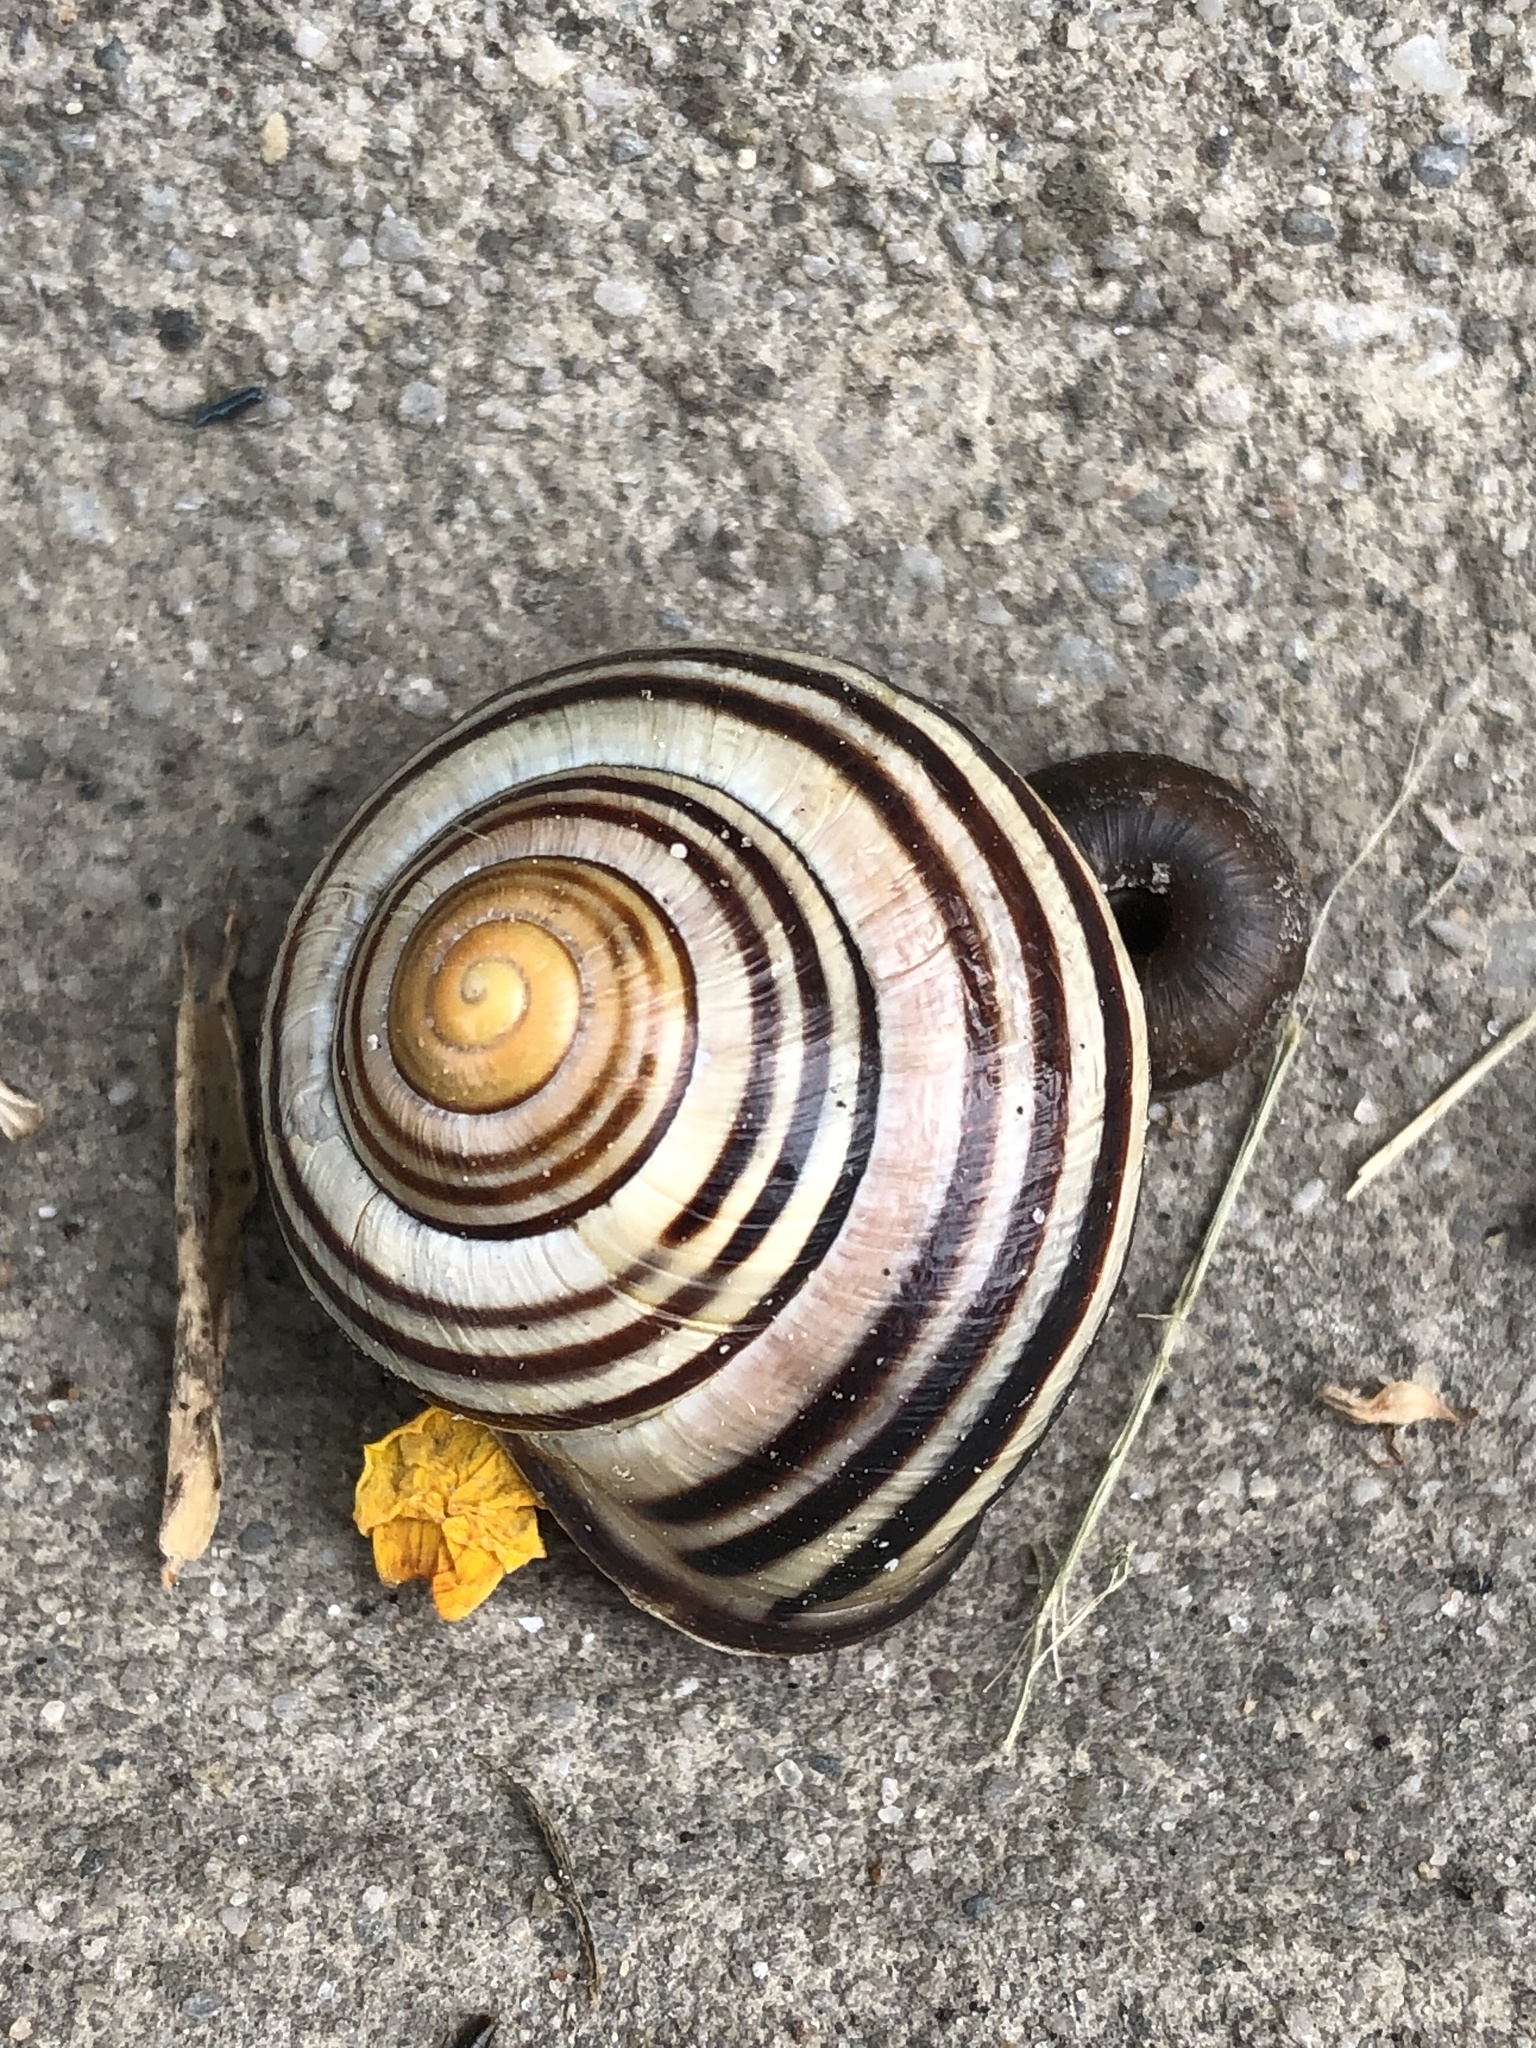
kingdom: Animalia
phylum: Mollusca
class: Gastropoda
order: Stylommatophora
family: Helicidae
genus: Cepaea
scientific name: Cepaea nemoralis
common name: Grovesnail
